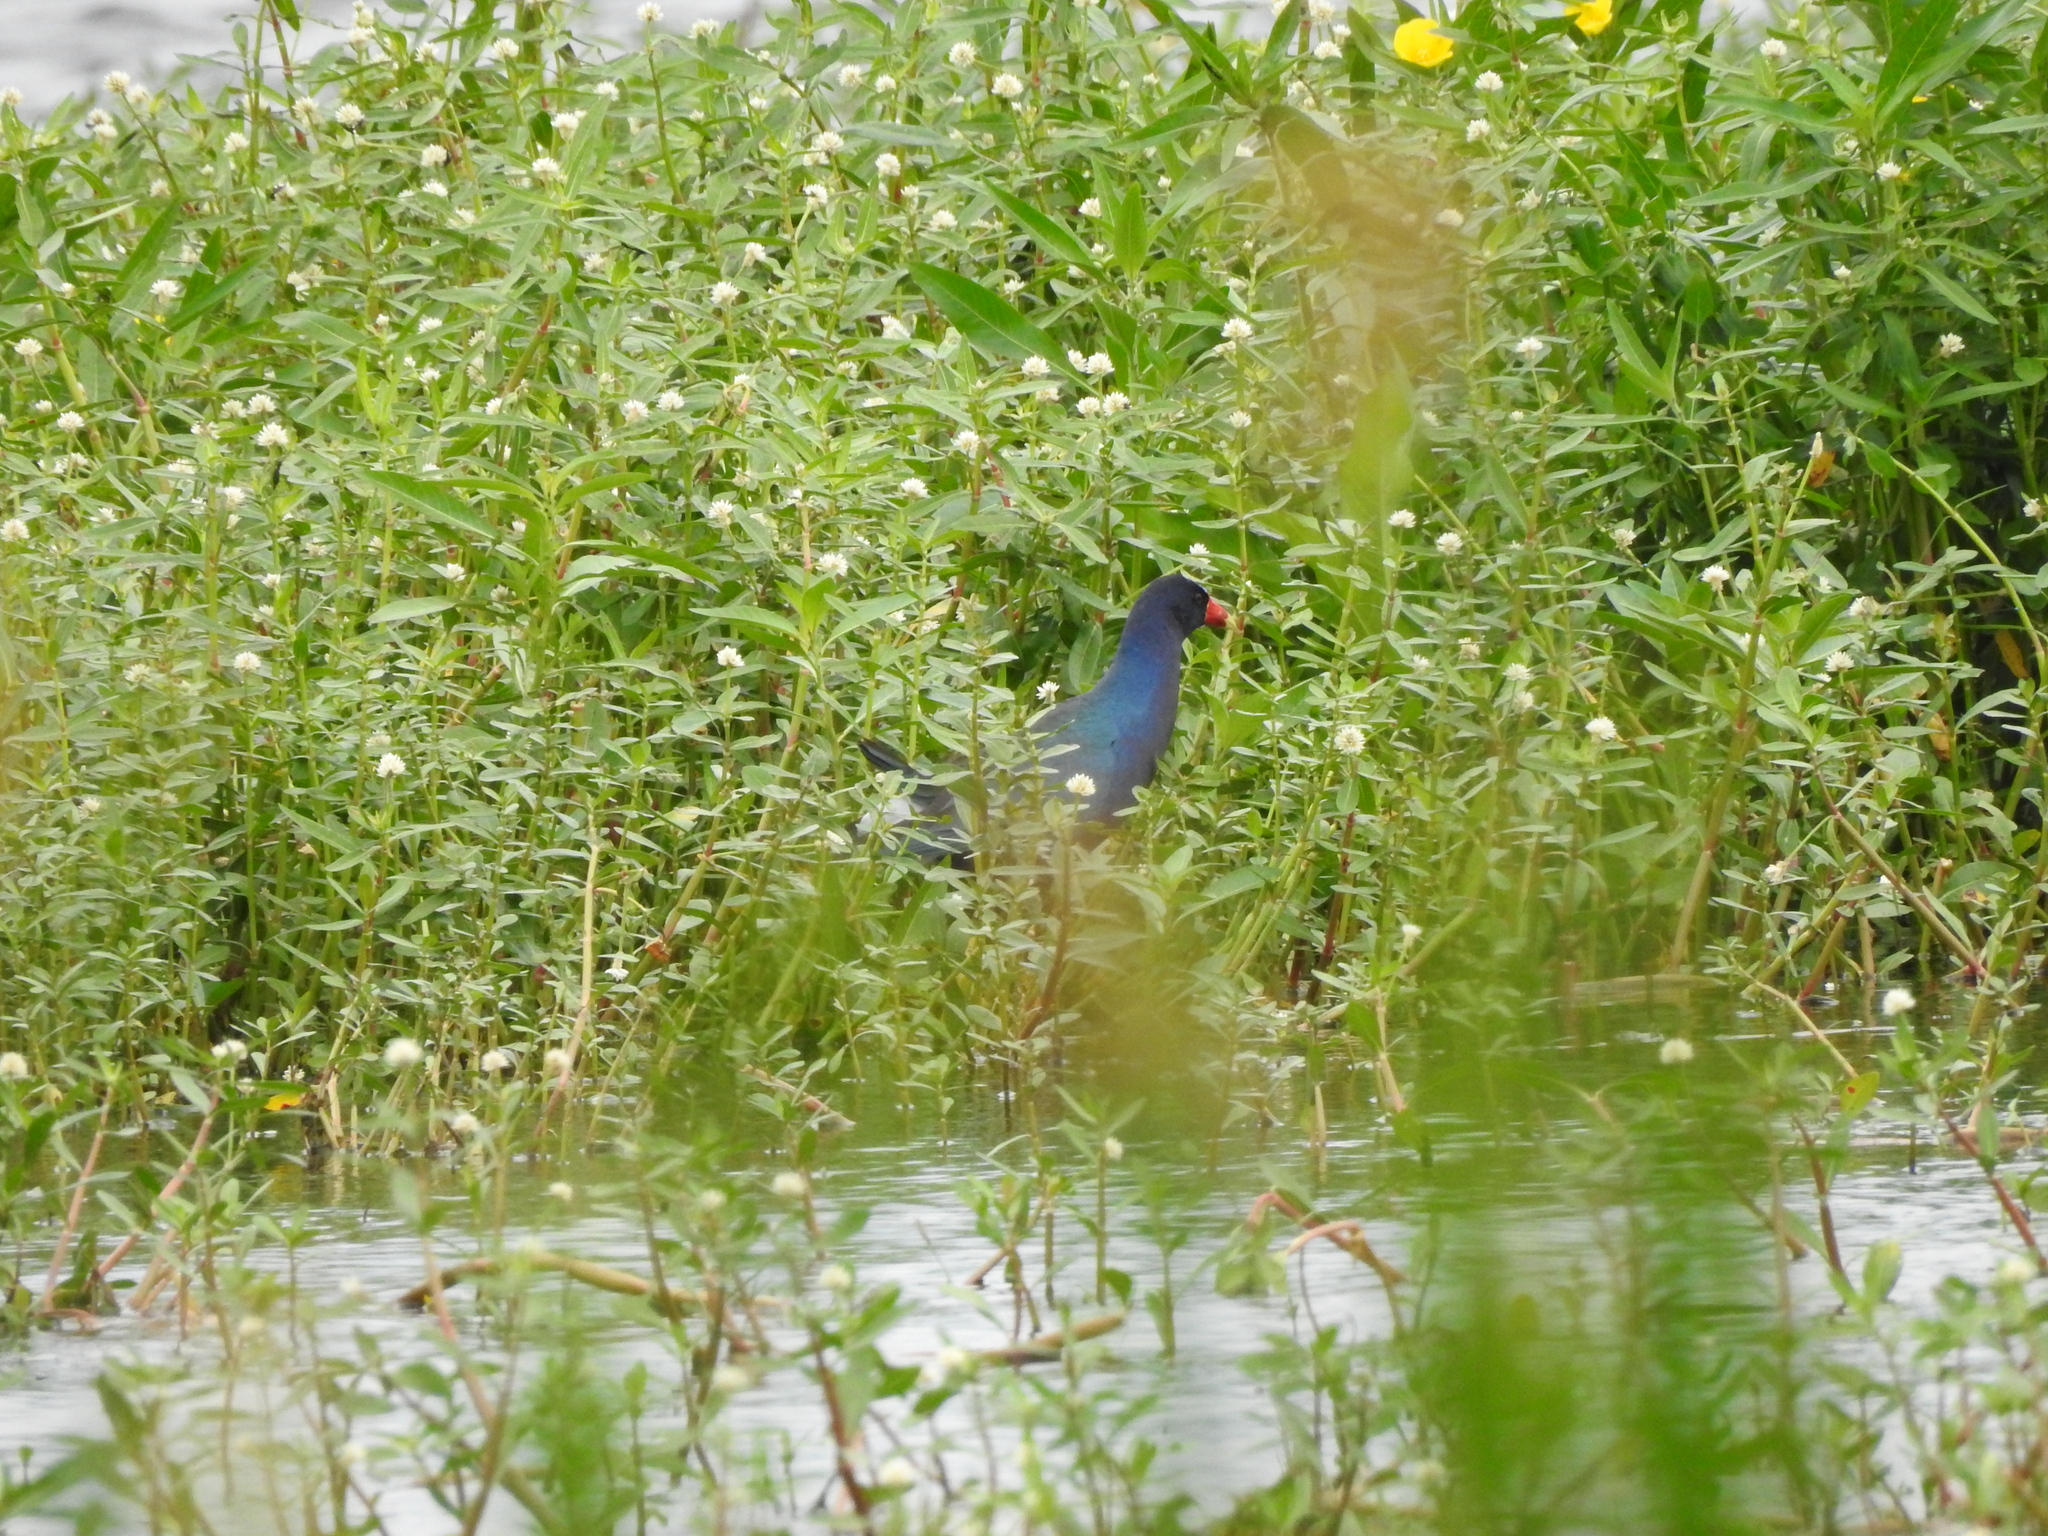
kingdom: Animalia
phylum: Chordata
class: Aves
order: Gruiformes
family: Rallidae
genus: Porphyrio
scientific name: Porphyrio martinica
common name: Purple gallinule
